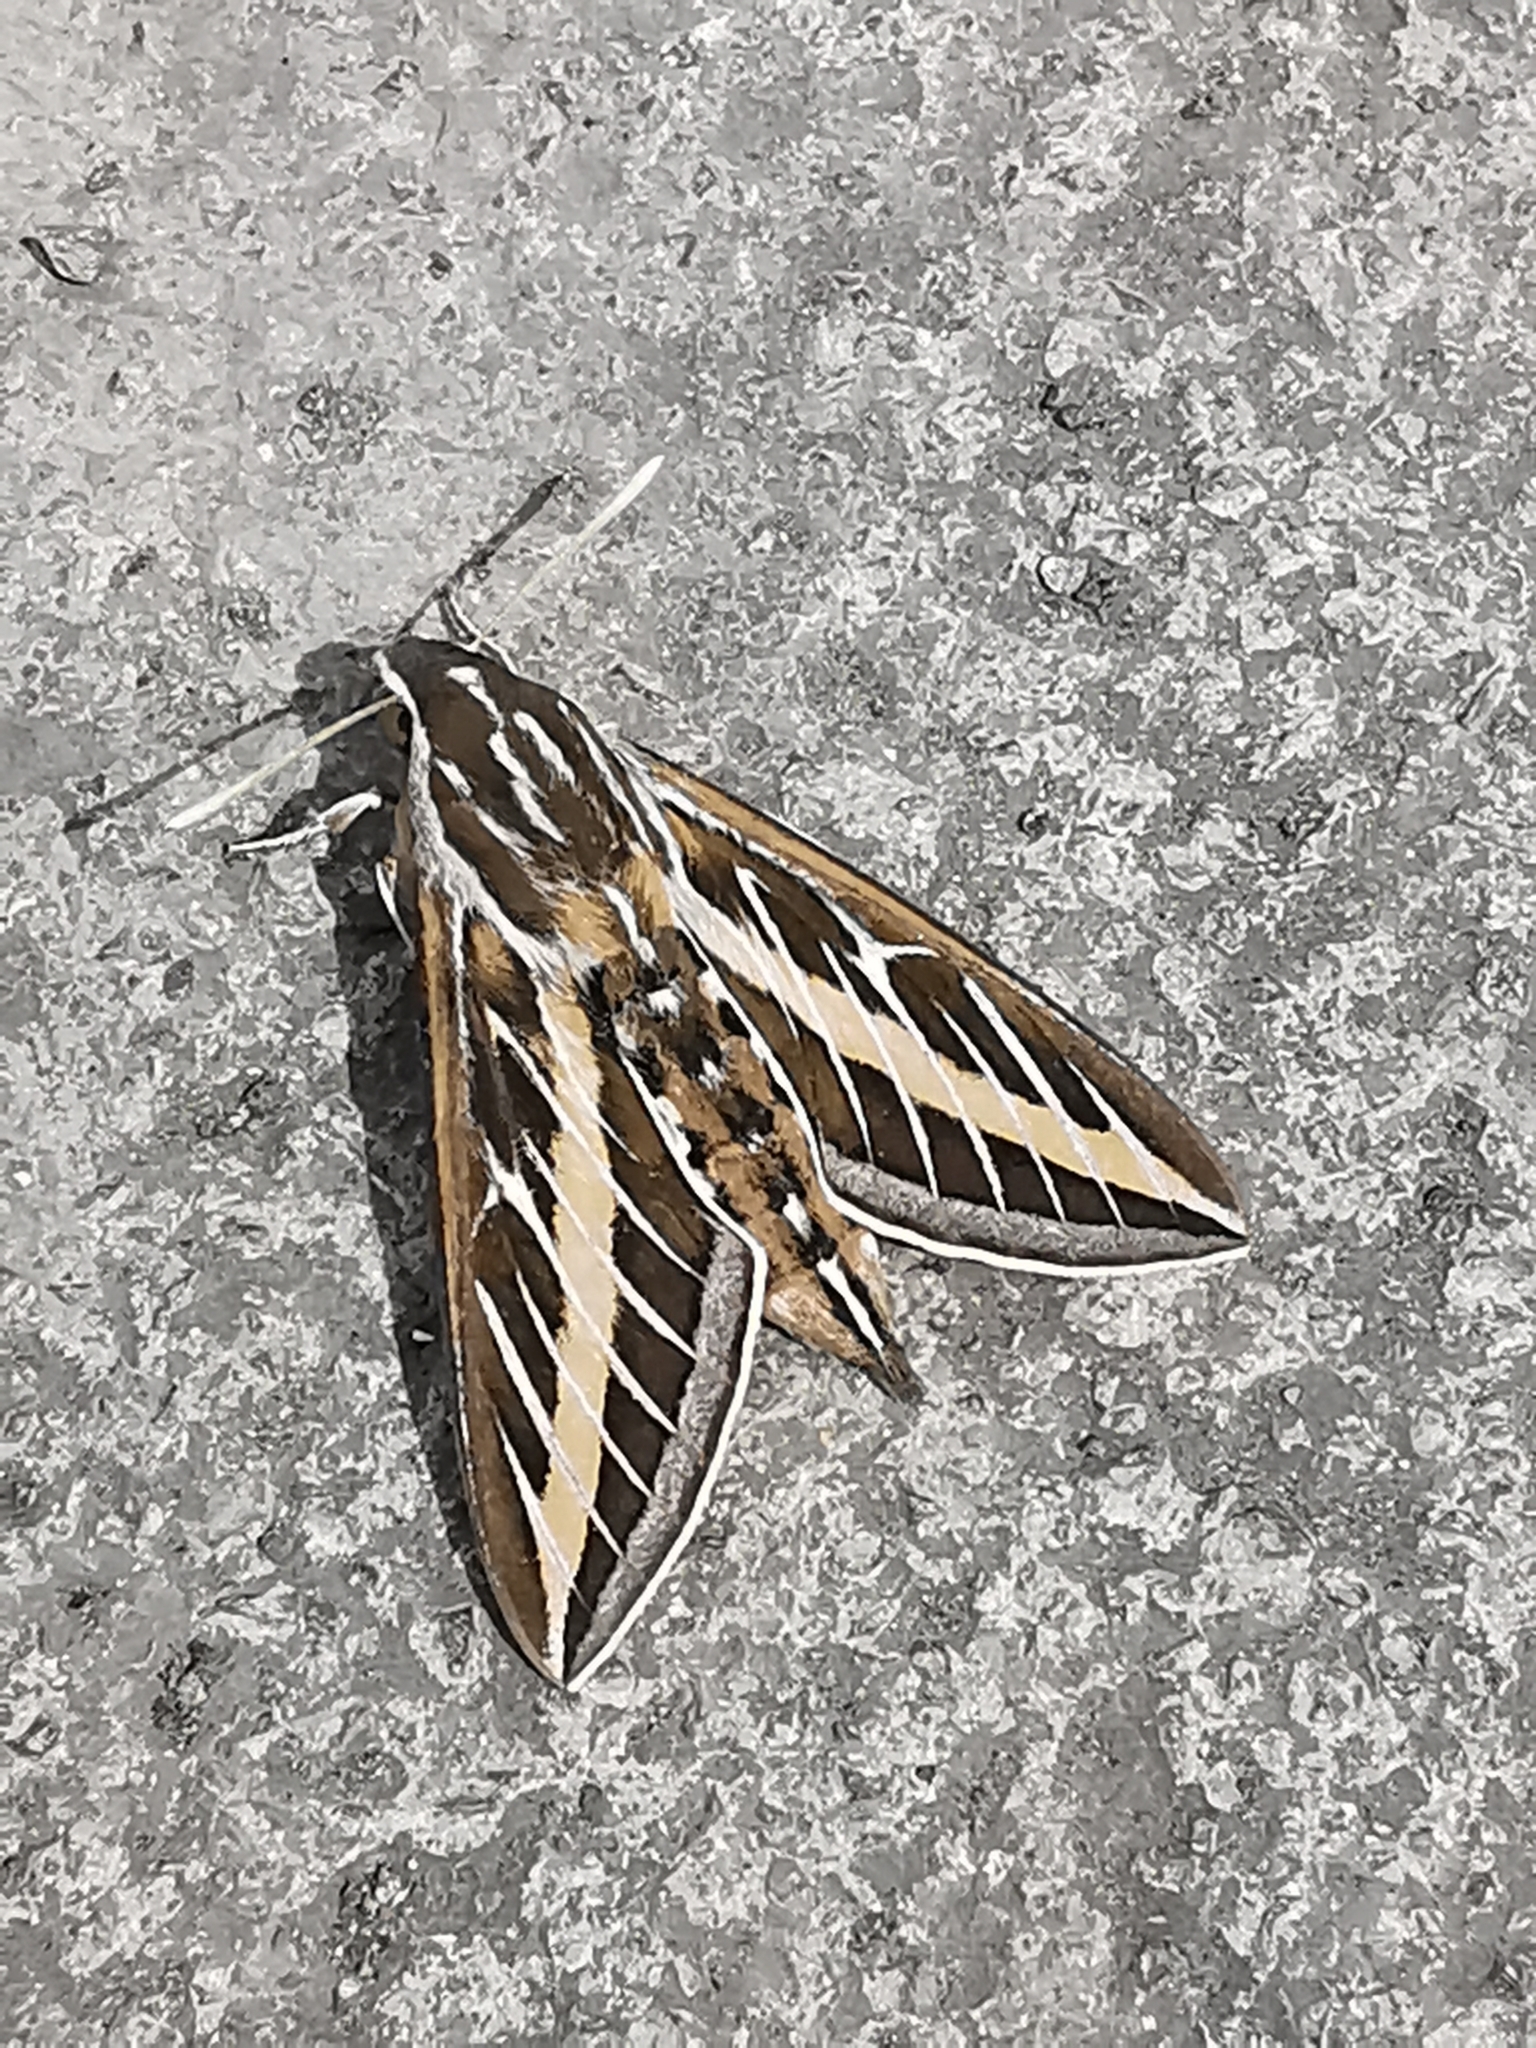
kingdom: Animalia
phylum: Arthropoda
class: Insecta
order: Lepidoptera
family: Sphingidae
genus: Hyles
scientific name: Hyles lineata
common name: White-lined sphinx
